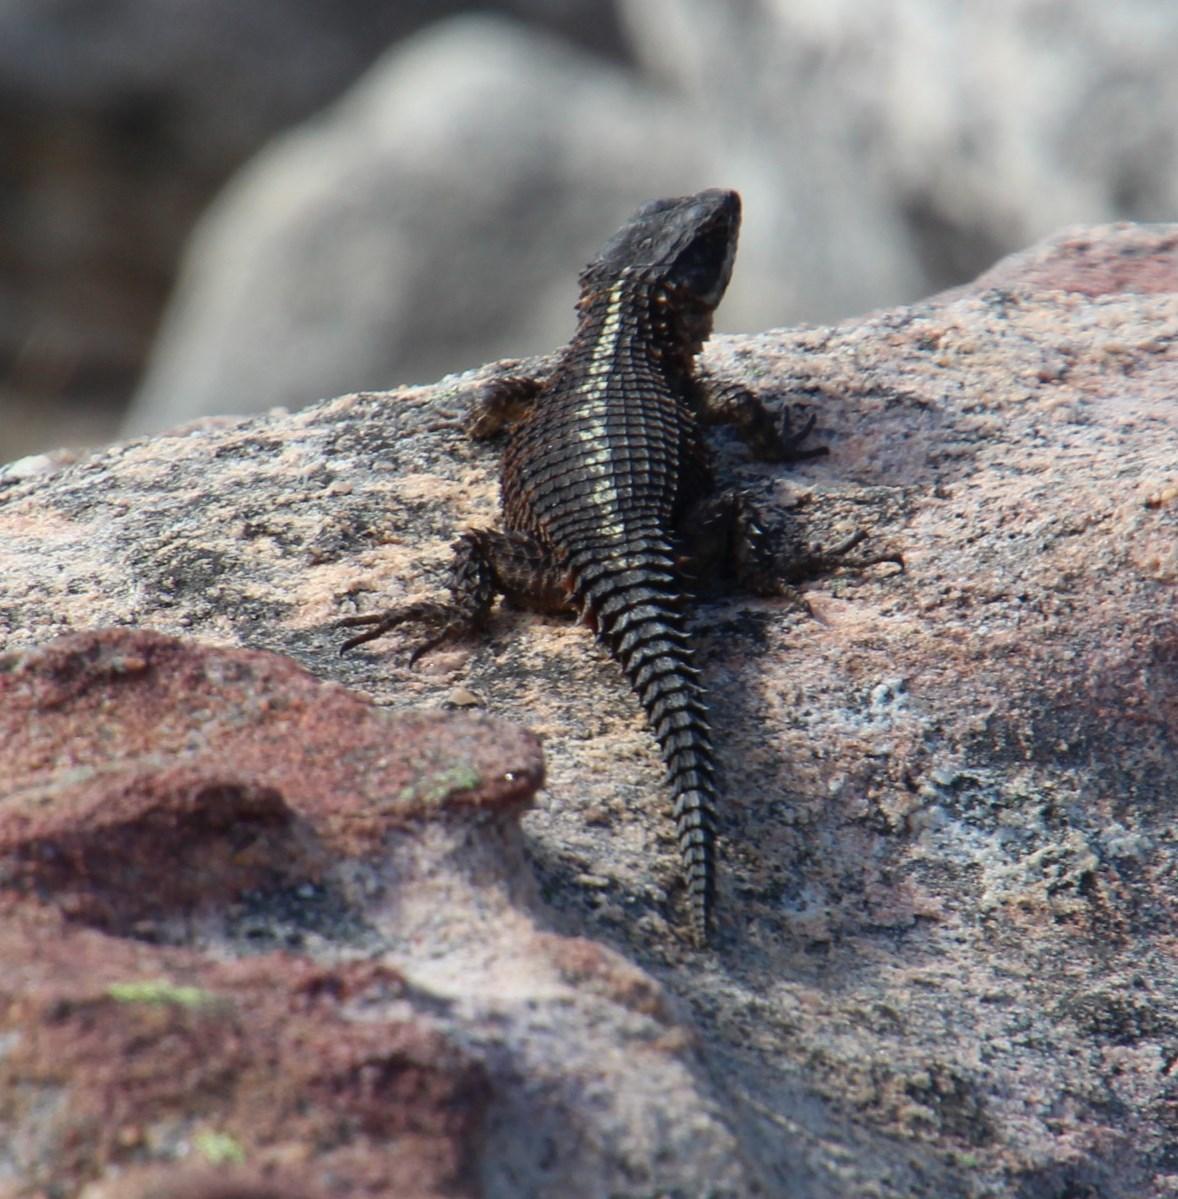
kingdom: Animalia
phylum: Chordata
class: Squamata
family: Cordylidae
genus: Cordylus
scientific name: Cordylus cordylus
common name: Cape girdled lizard
